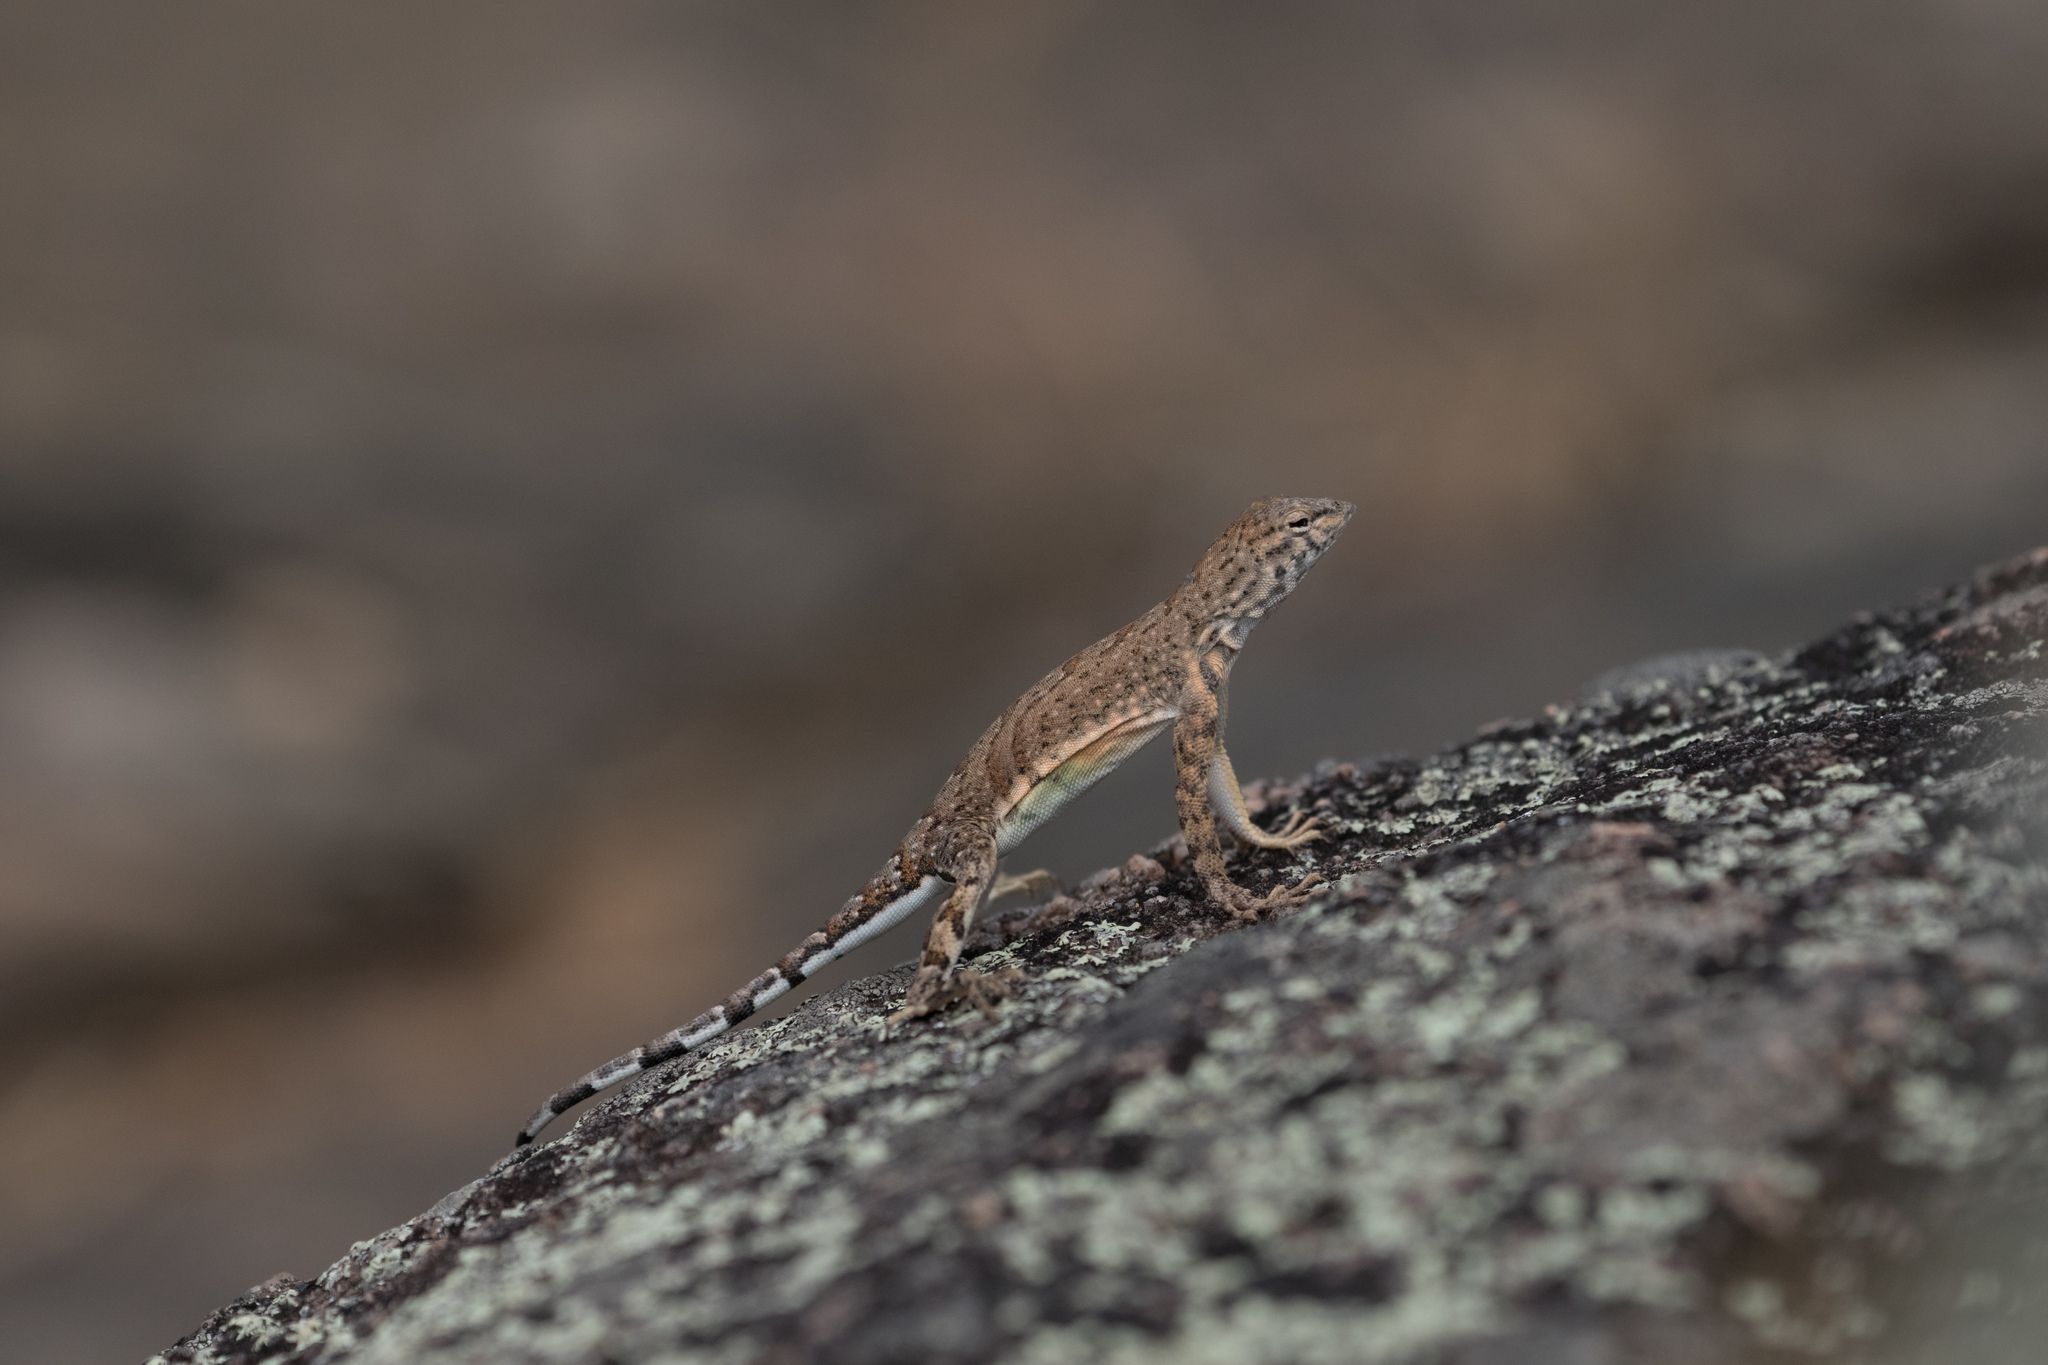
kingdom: Animalia
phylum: Chordata
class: Squamata
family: Phrynosomatidae
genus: Cophosaurus
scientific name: Cophosaurus texanus
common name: Greater earless lizard
